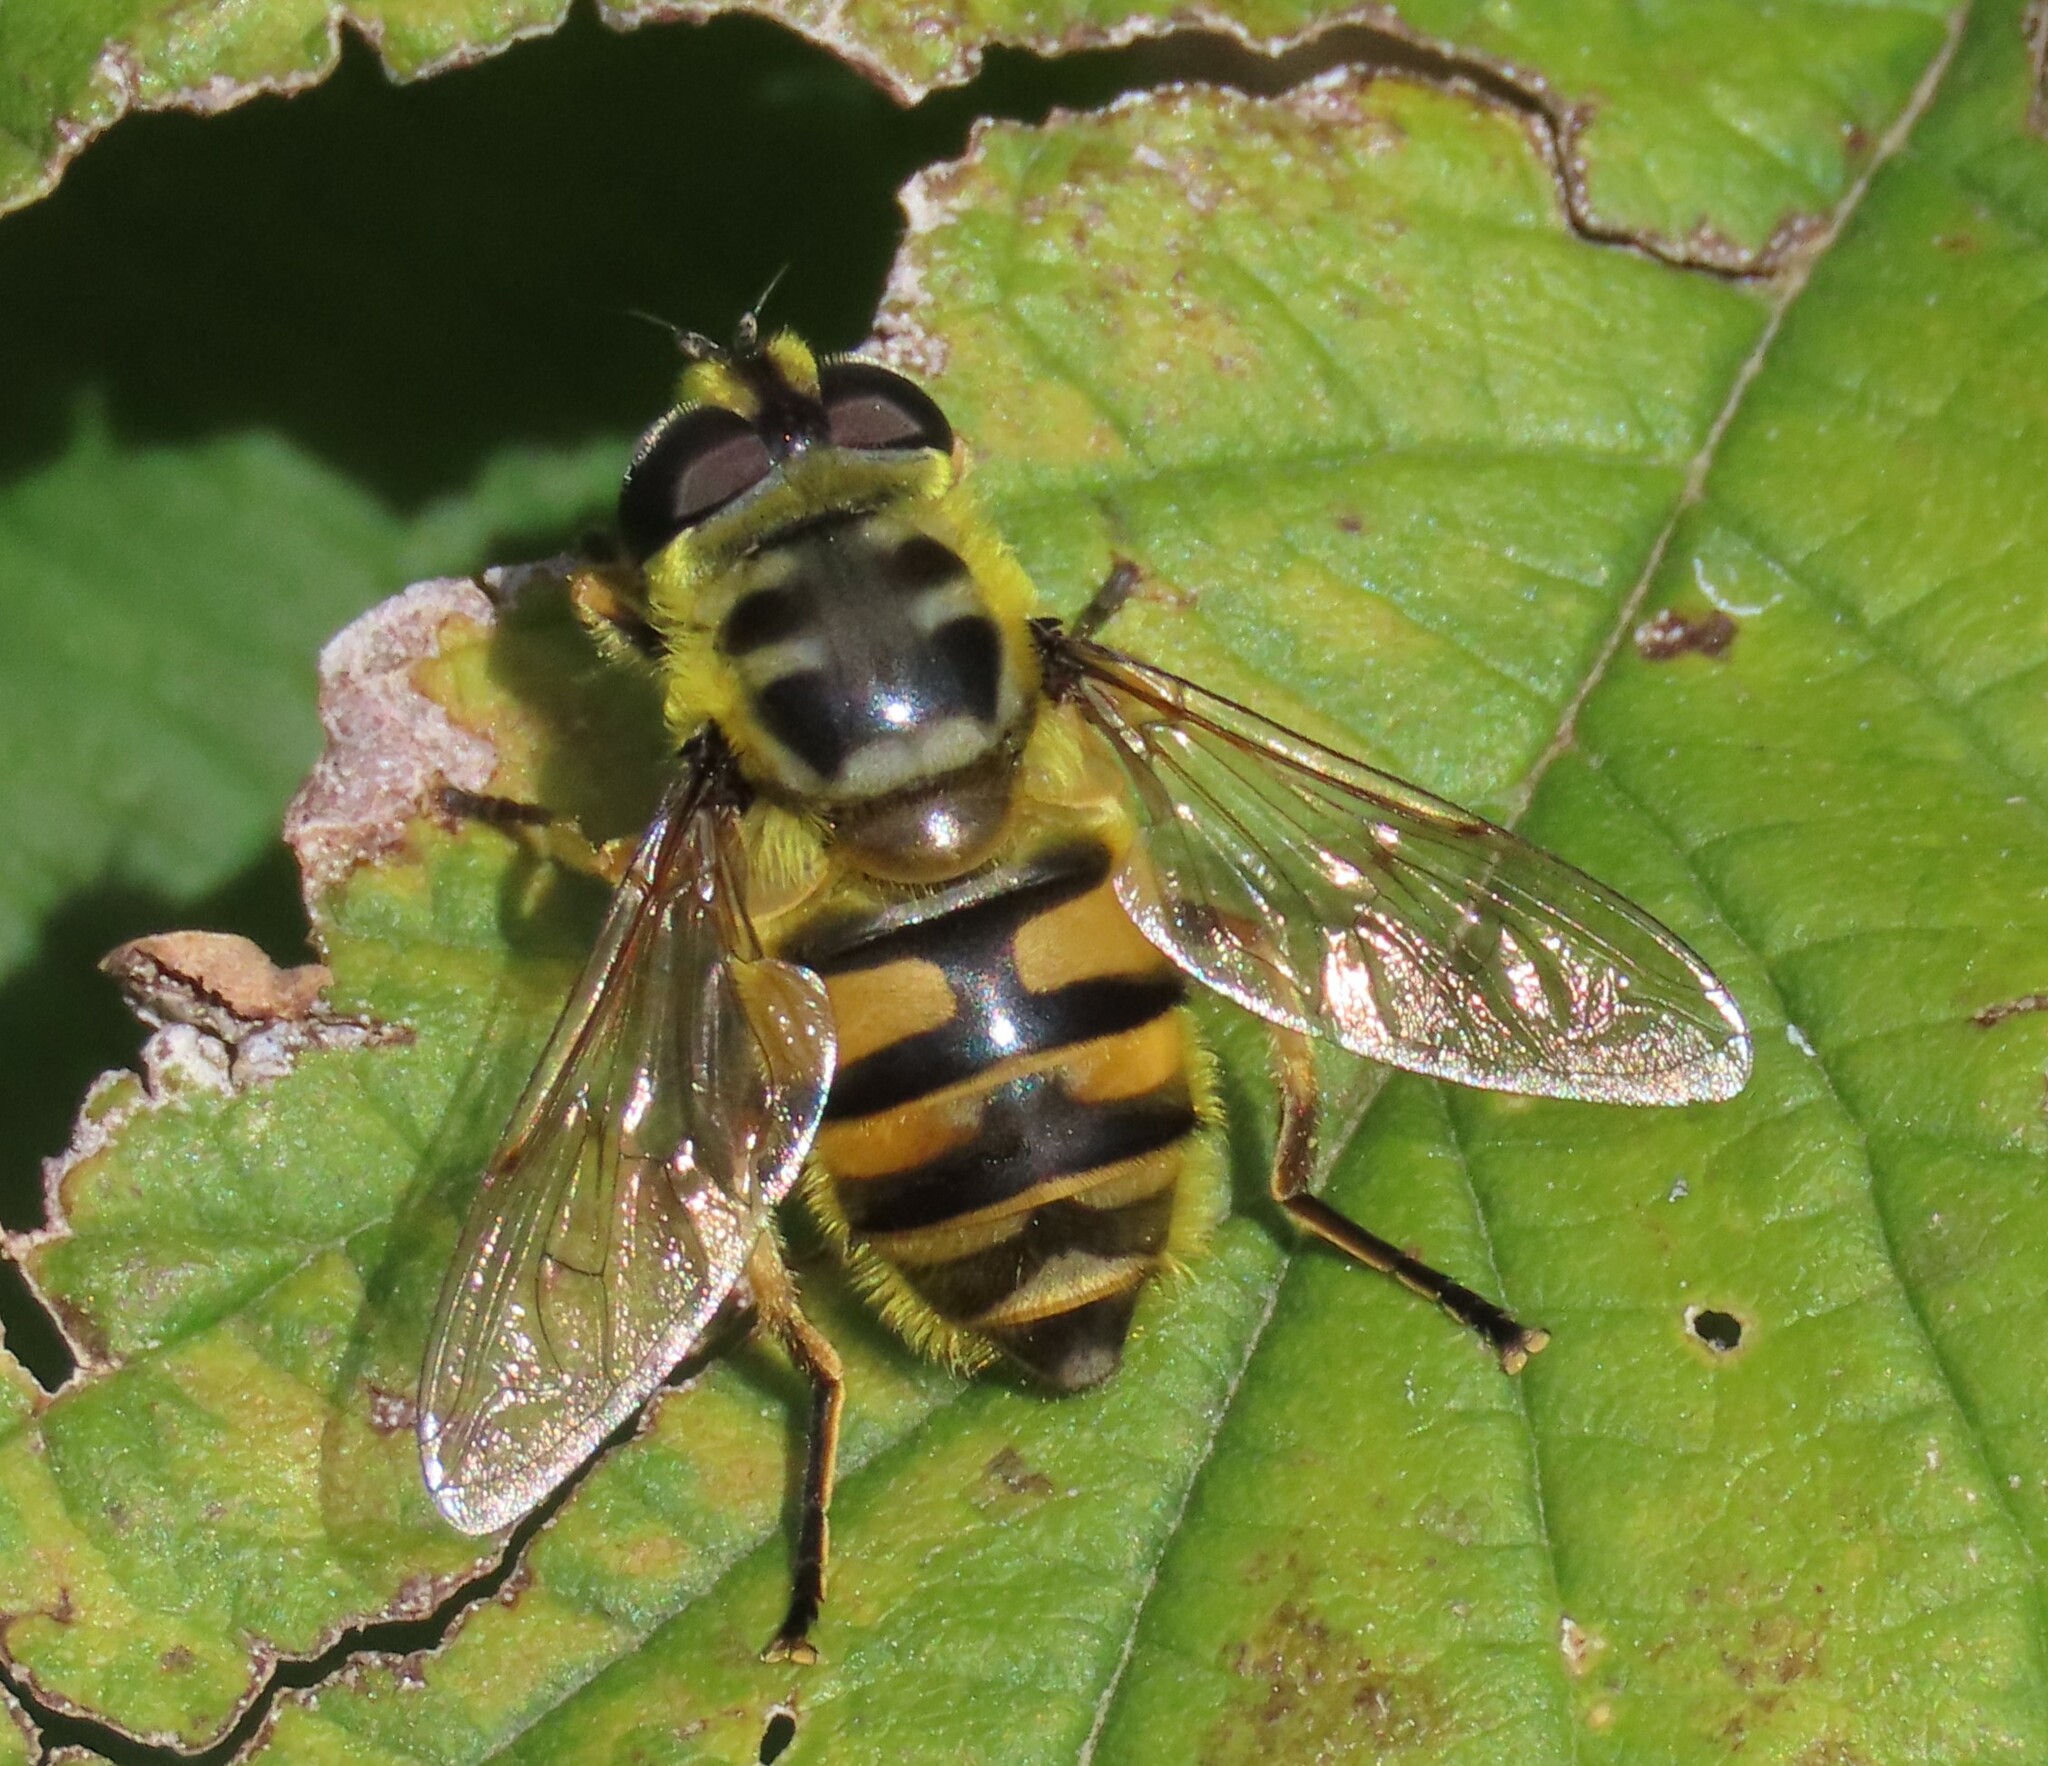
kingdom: Animalia
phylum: Arthropoda
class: Insecta
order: Diptera
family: Syrphidae
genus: Myathropa
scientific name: Myathropa florea
